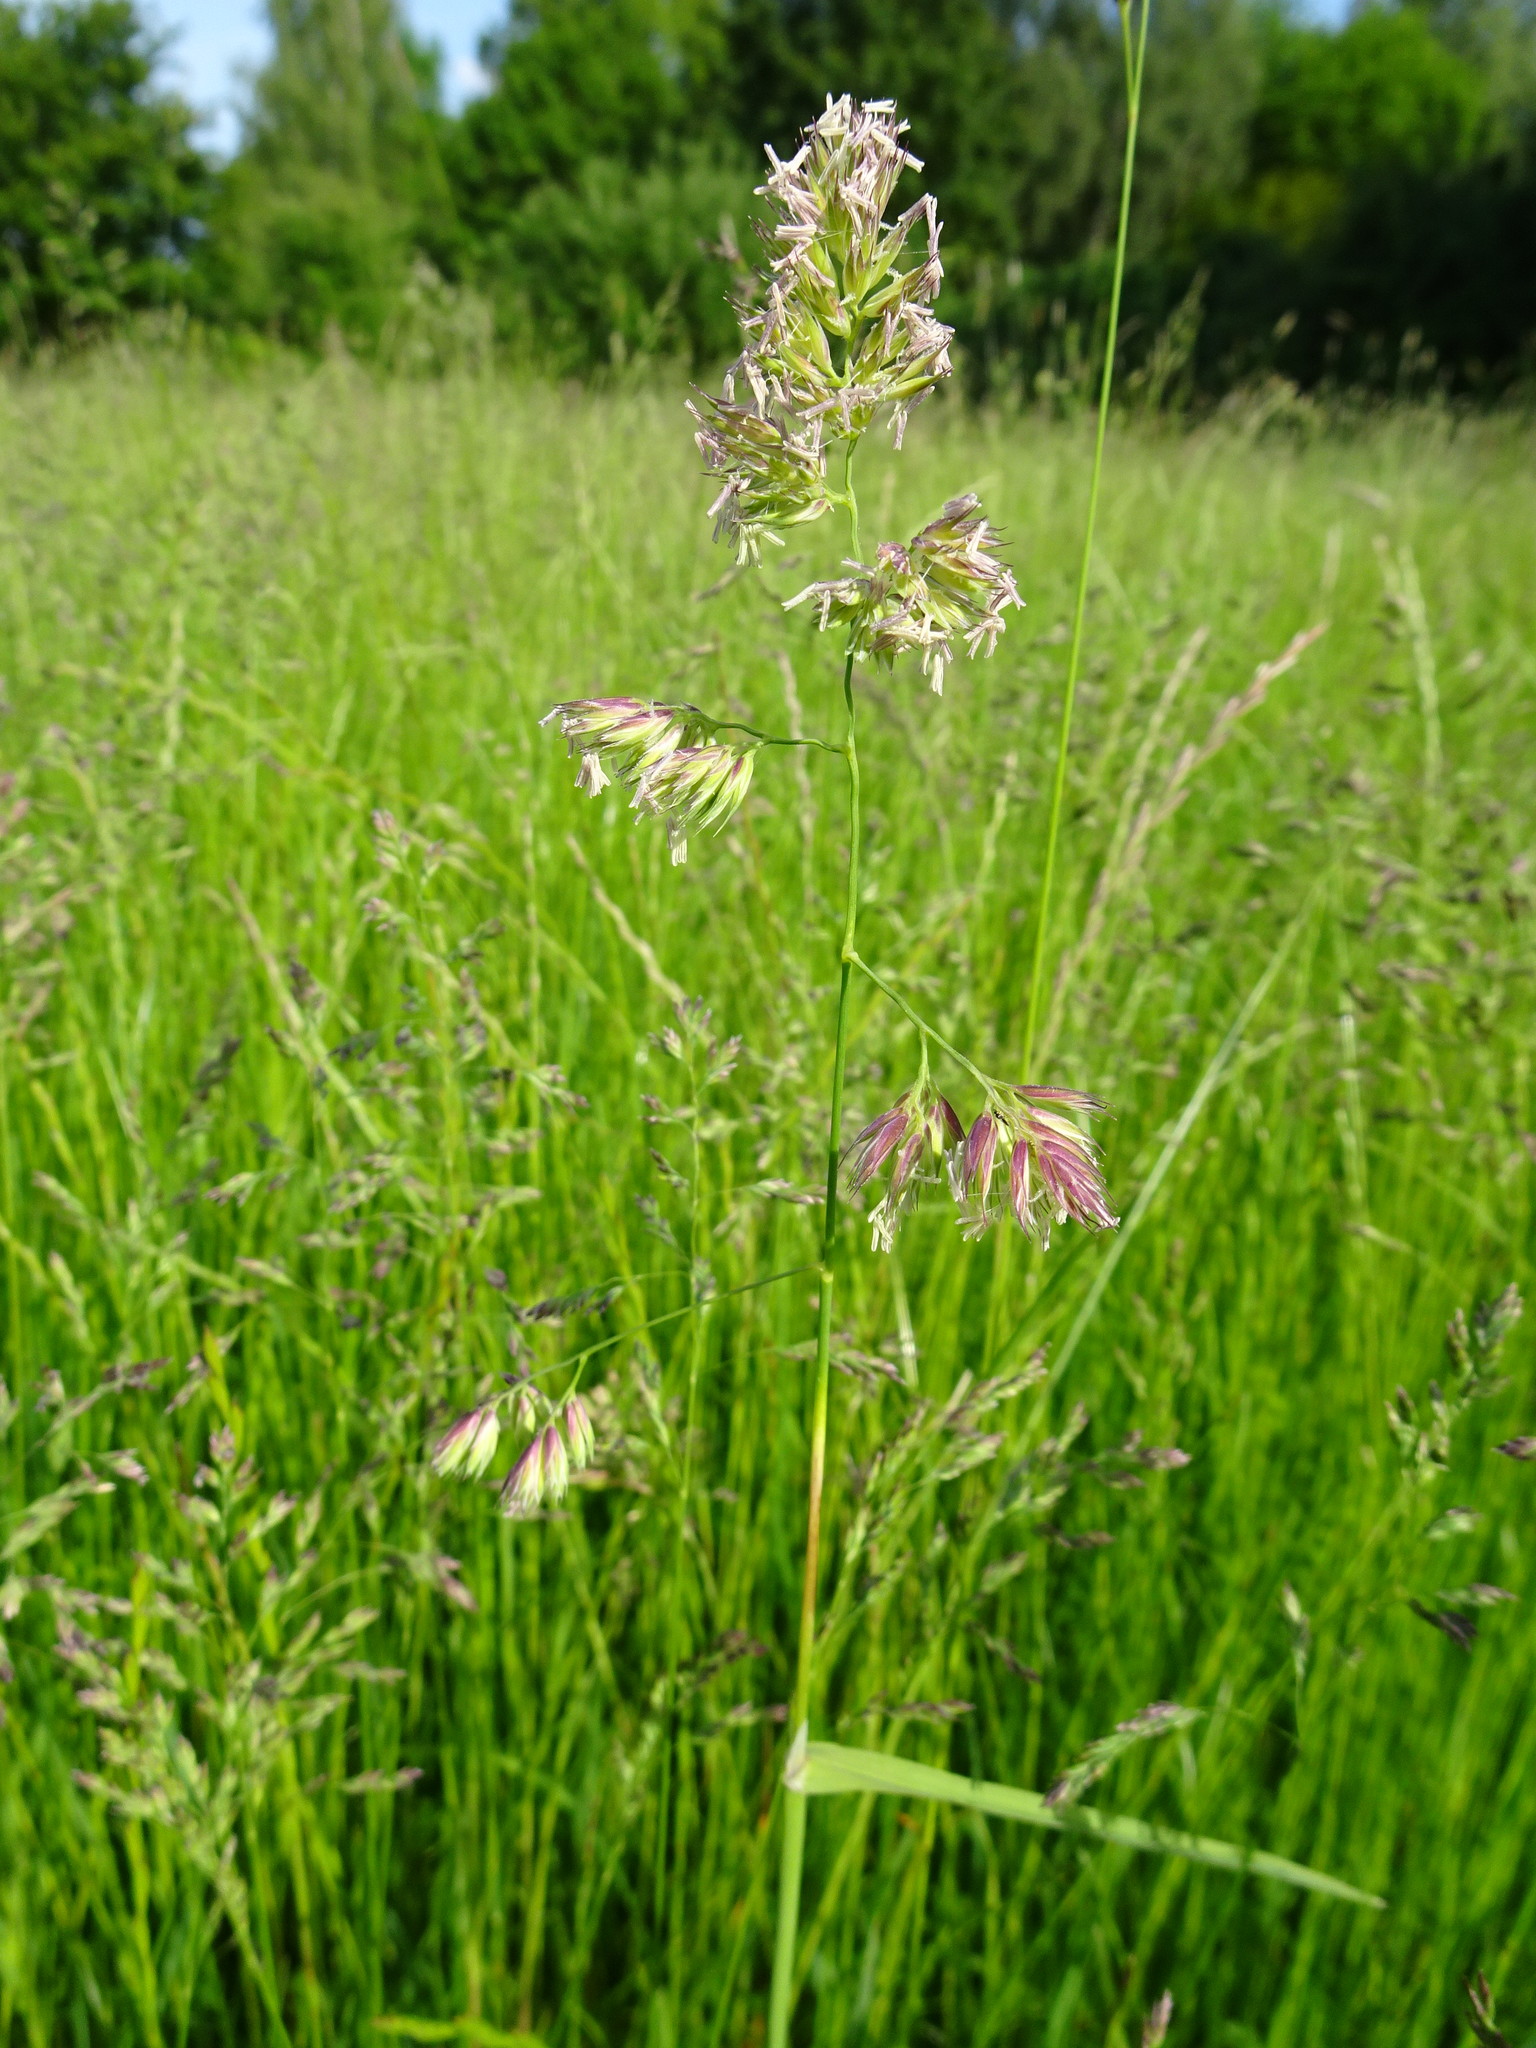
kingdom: Plantae
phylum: Tracheophyta
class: Liliopsida
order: Poales
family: Poaceae
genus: Dactylis
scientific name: Dactylis glomerata
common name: Orchardgrass
